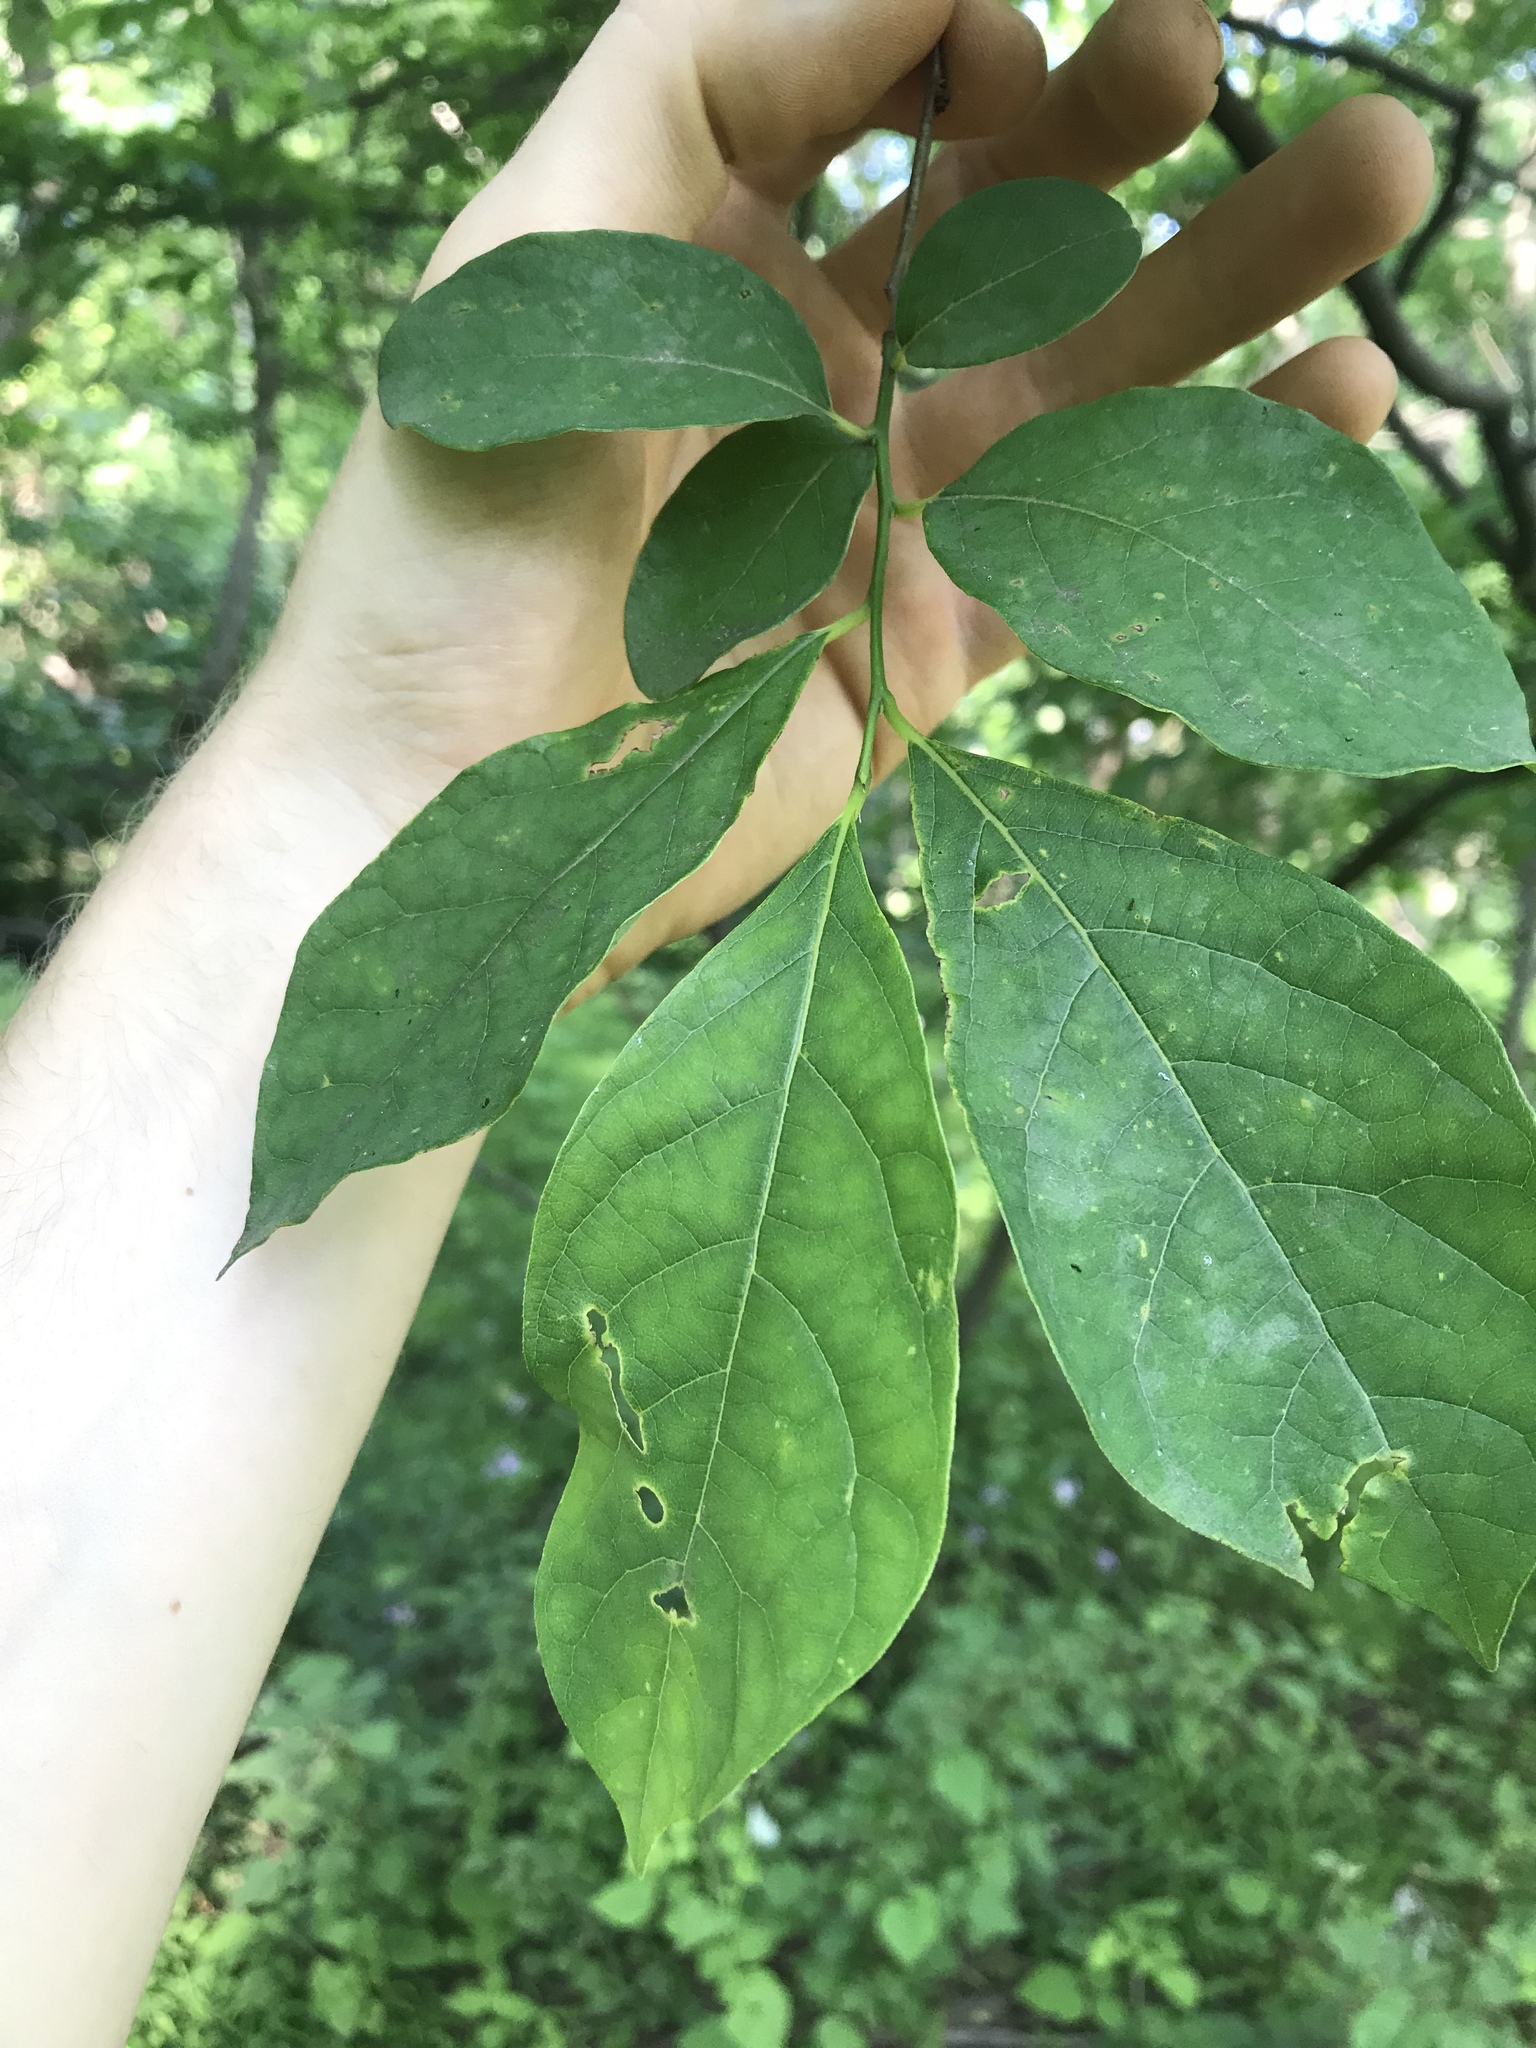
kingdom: Plantae
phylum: Tracheophyta
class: Magnoliopsida
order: Laurales
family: Lauraceae
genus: Lindera
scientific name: Lindera benzoin
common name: Spicebush
